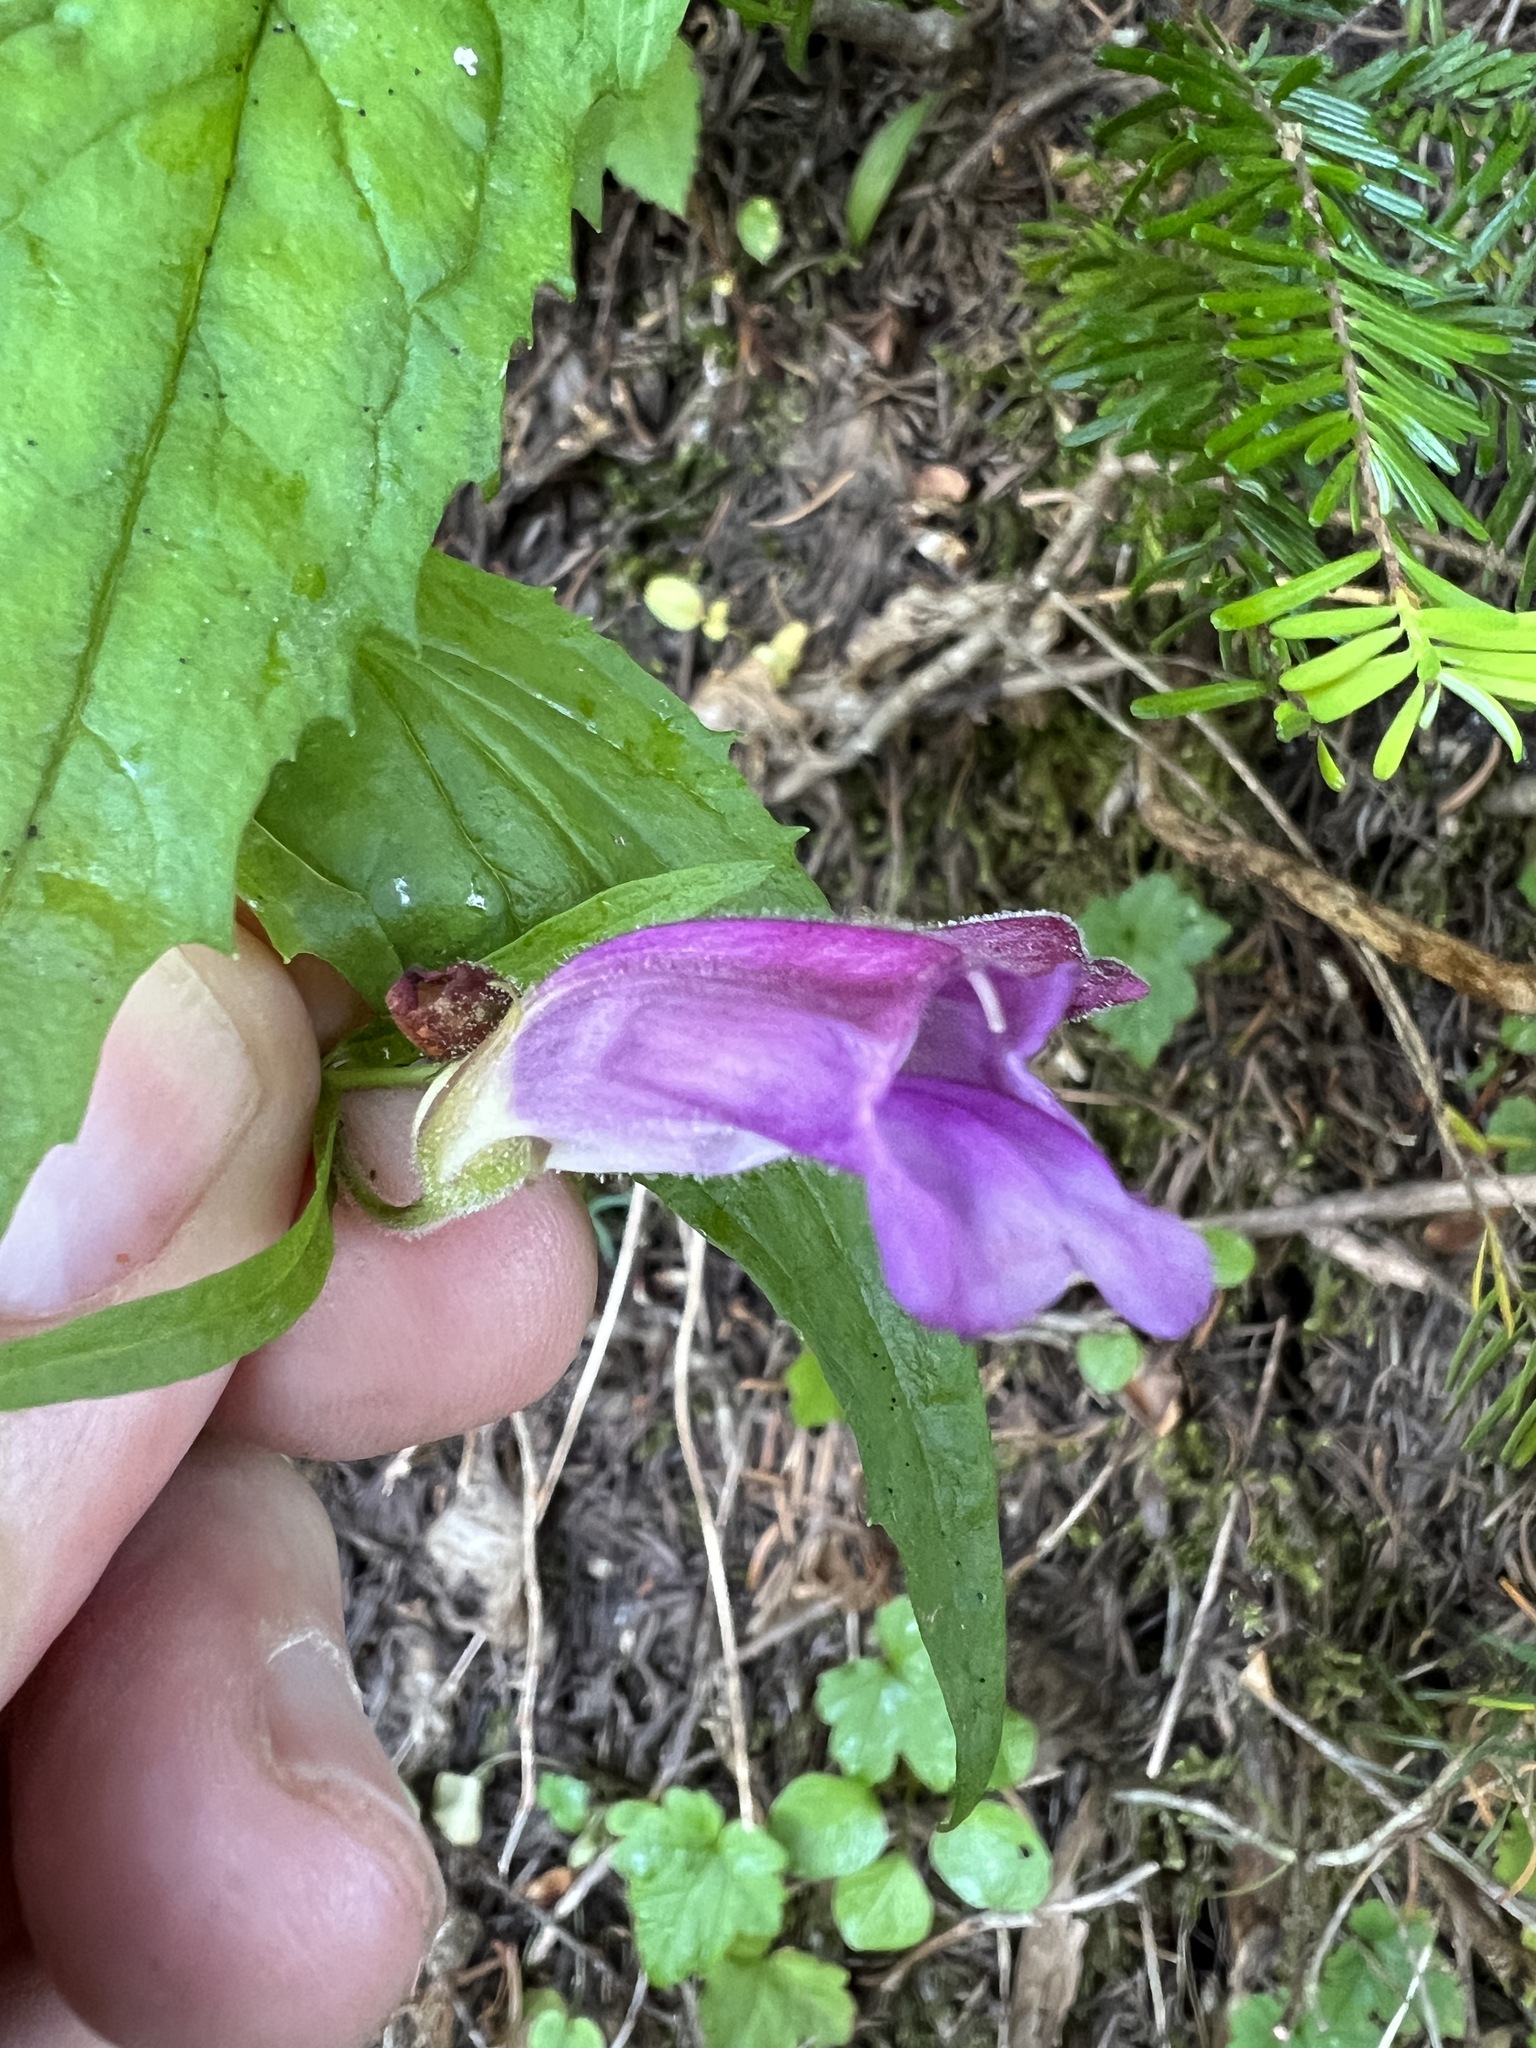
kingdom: Plantae
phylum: Tracheophyta
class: Magnoliopsida
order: Lamiales
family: Plantaginaceae
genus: Nothochelone
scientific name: Nothochelone nemorosa
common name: Woodland beardtongue
